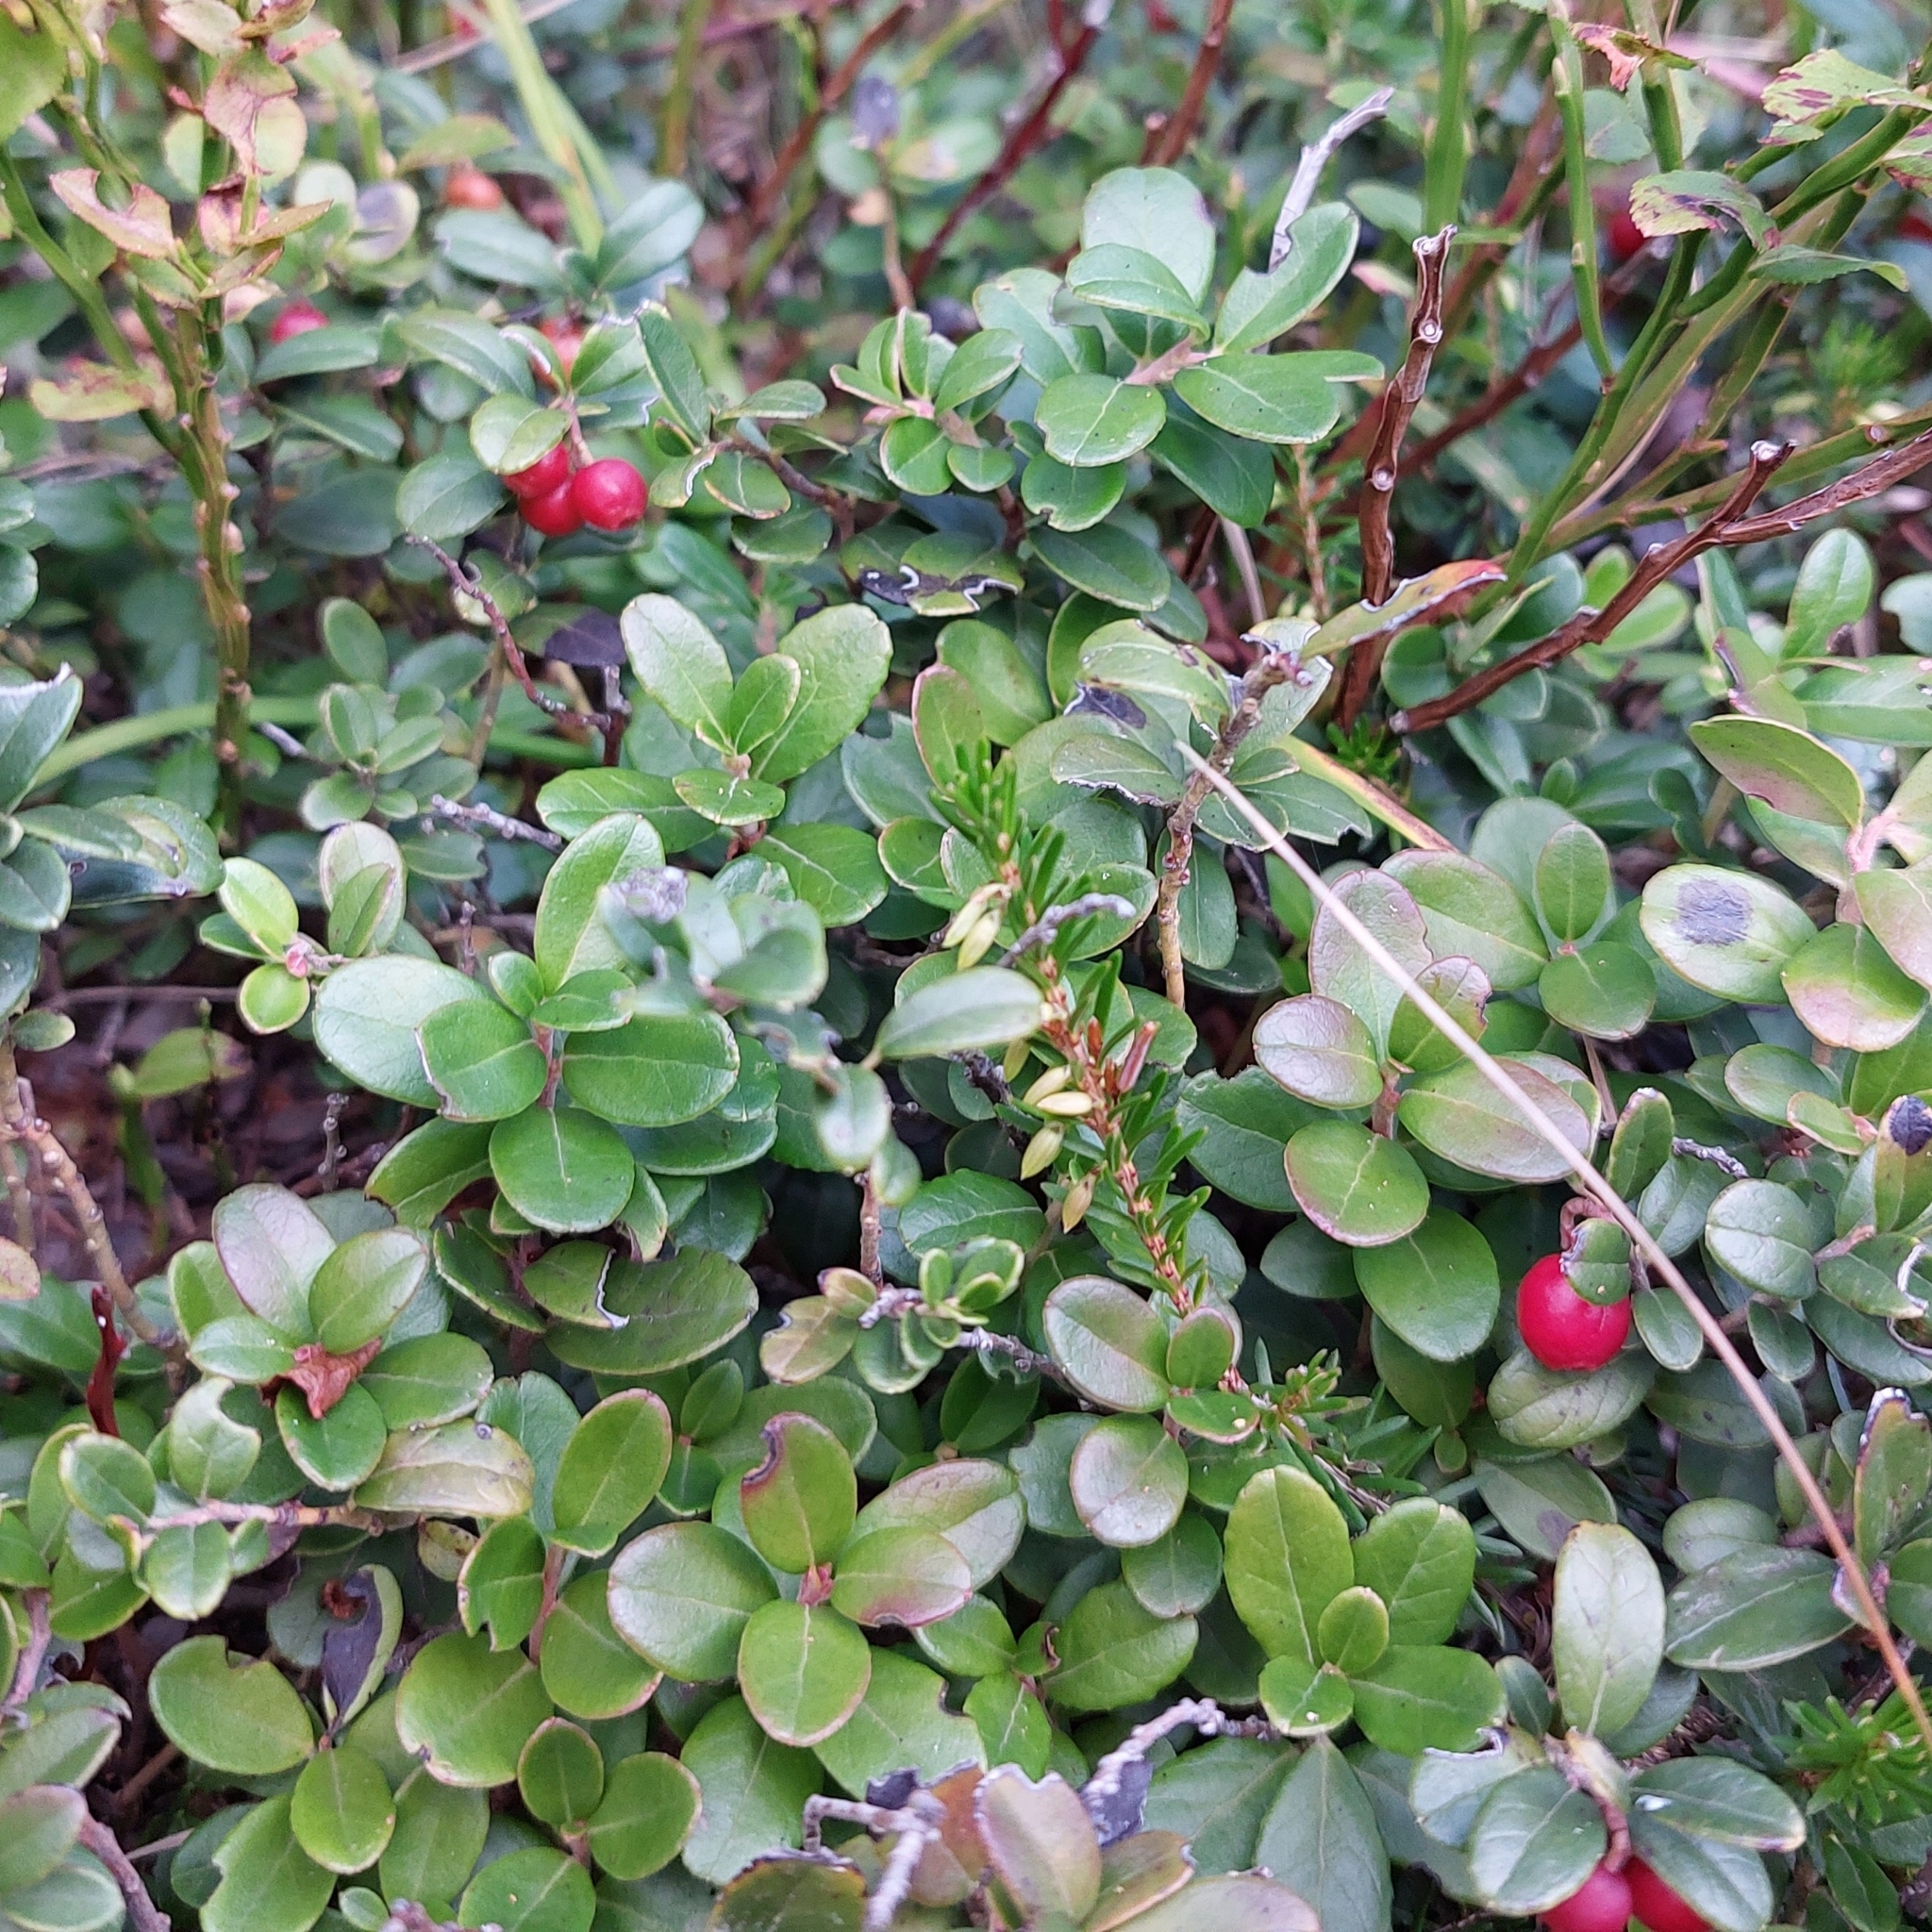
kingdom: Plantae
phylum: Tracheophyta
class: Magnoliopsida
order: Ericales
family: Ericaceae
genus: Vaccinium
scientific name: Vaccinium vitis-idaea
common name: Cowberry
